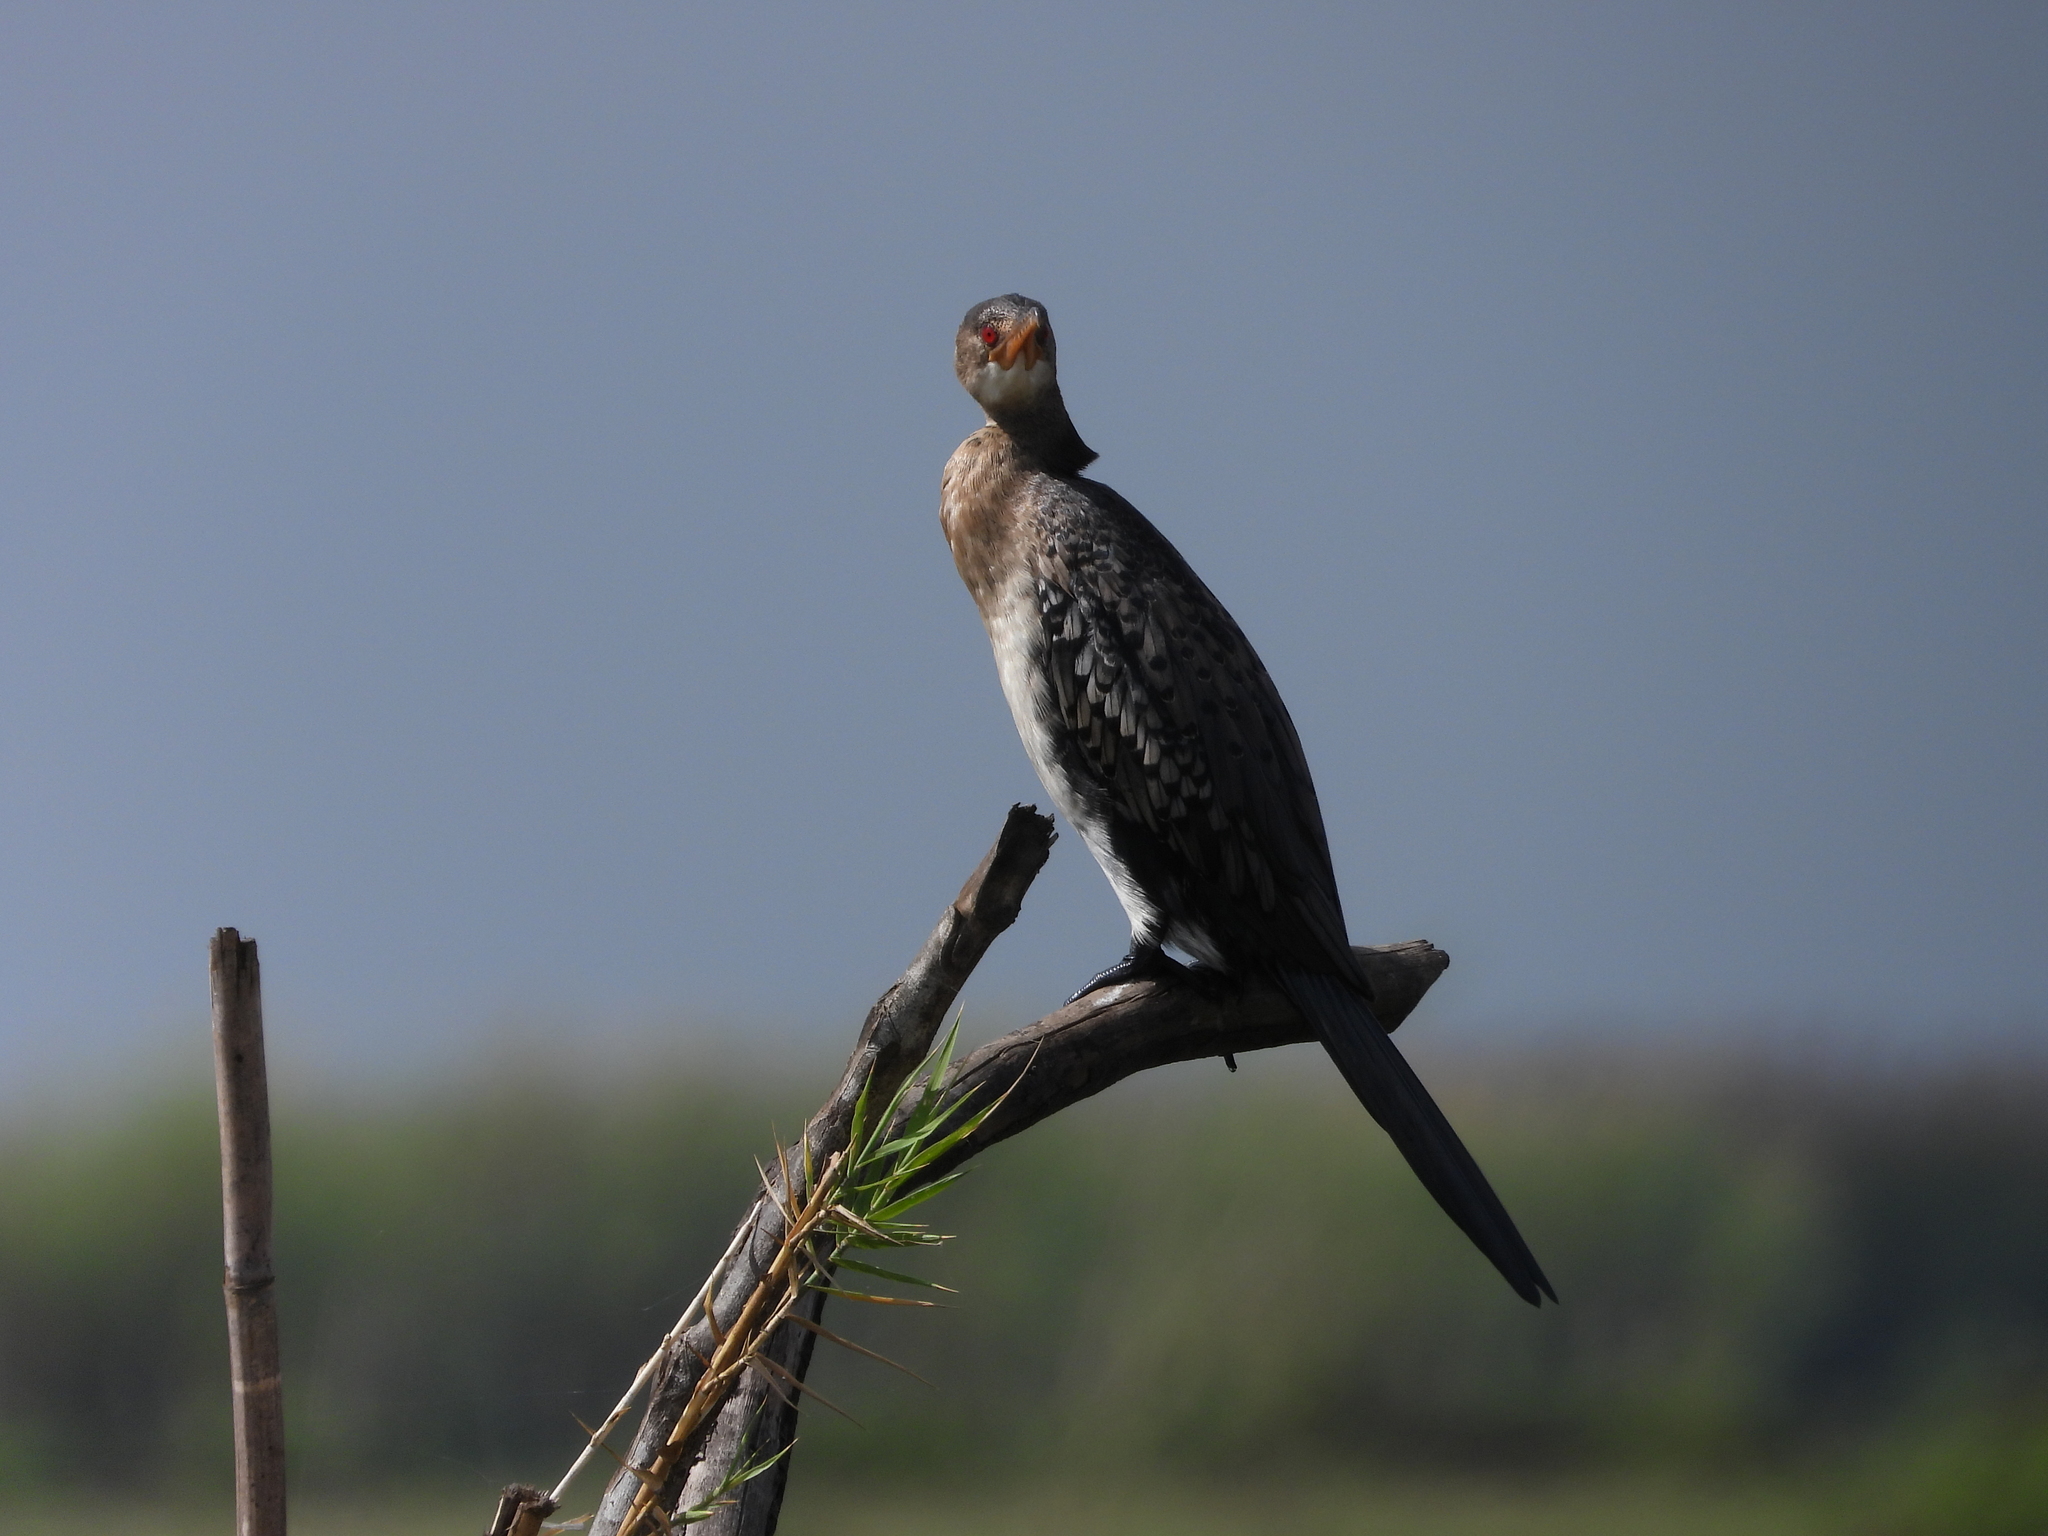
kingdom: Animalia
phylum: Chordata
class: Aves
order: Suliformes
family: Phalacrocoracidae
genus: Microcarbo
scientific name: Microcarbo africanus
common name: Long-tailed cormorant
